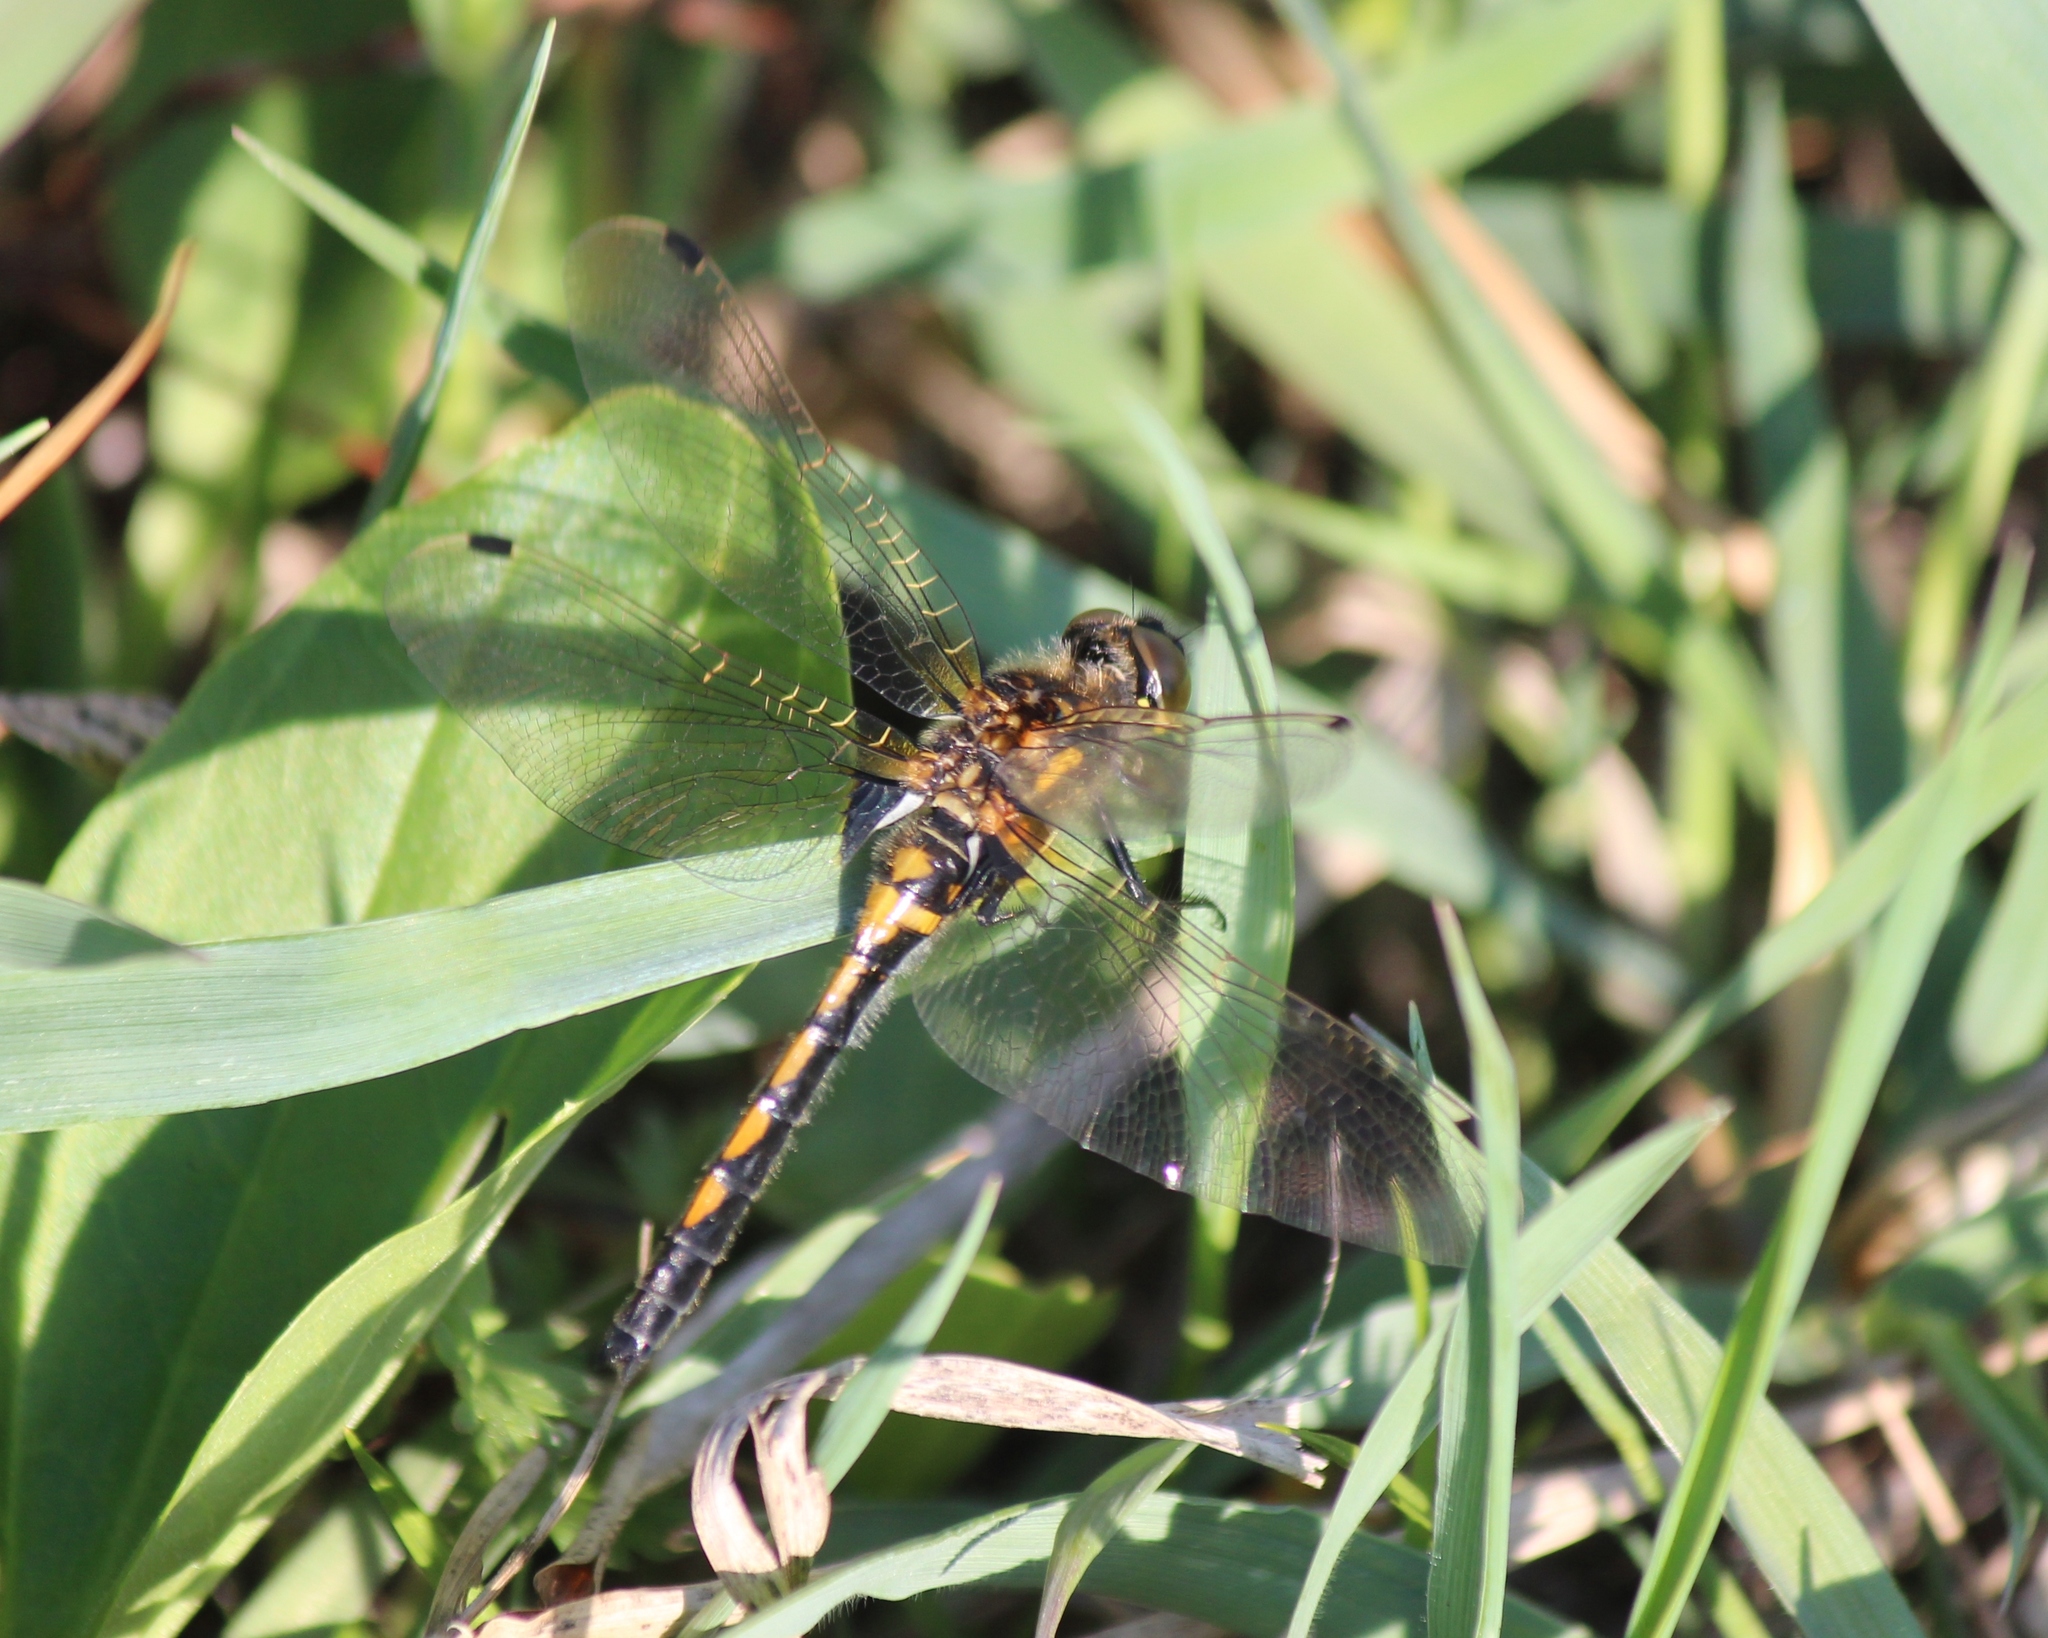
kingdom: Animalia
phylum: Arthropoda
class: Insecta
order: Odonata
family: Libellulidae
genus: Leucorrhinia
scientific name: Leucorrhinia rubicunda
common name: Ruby whiteface
